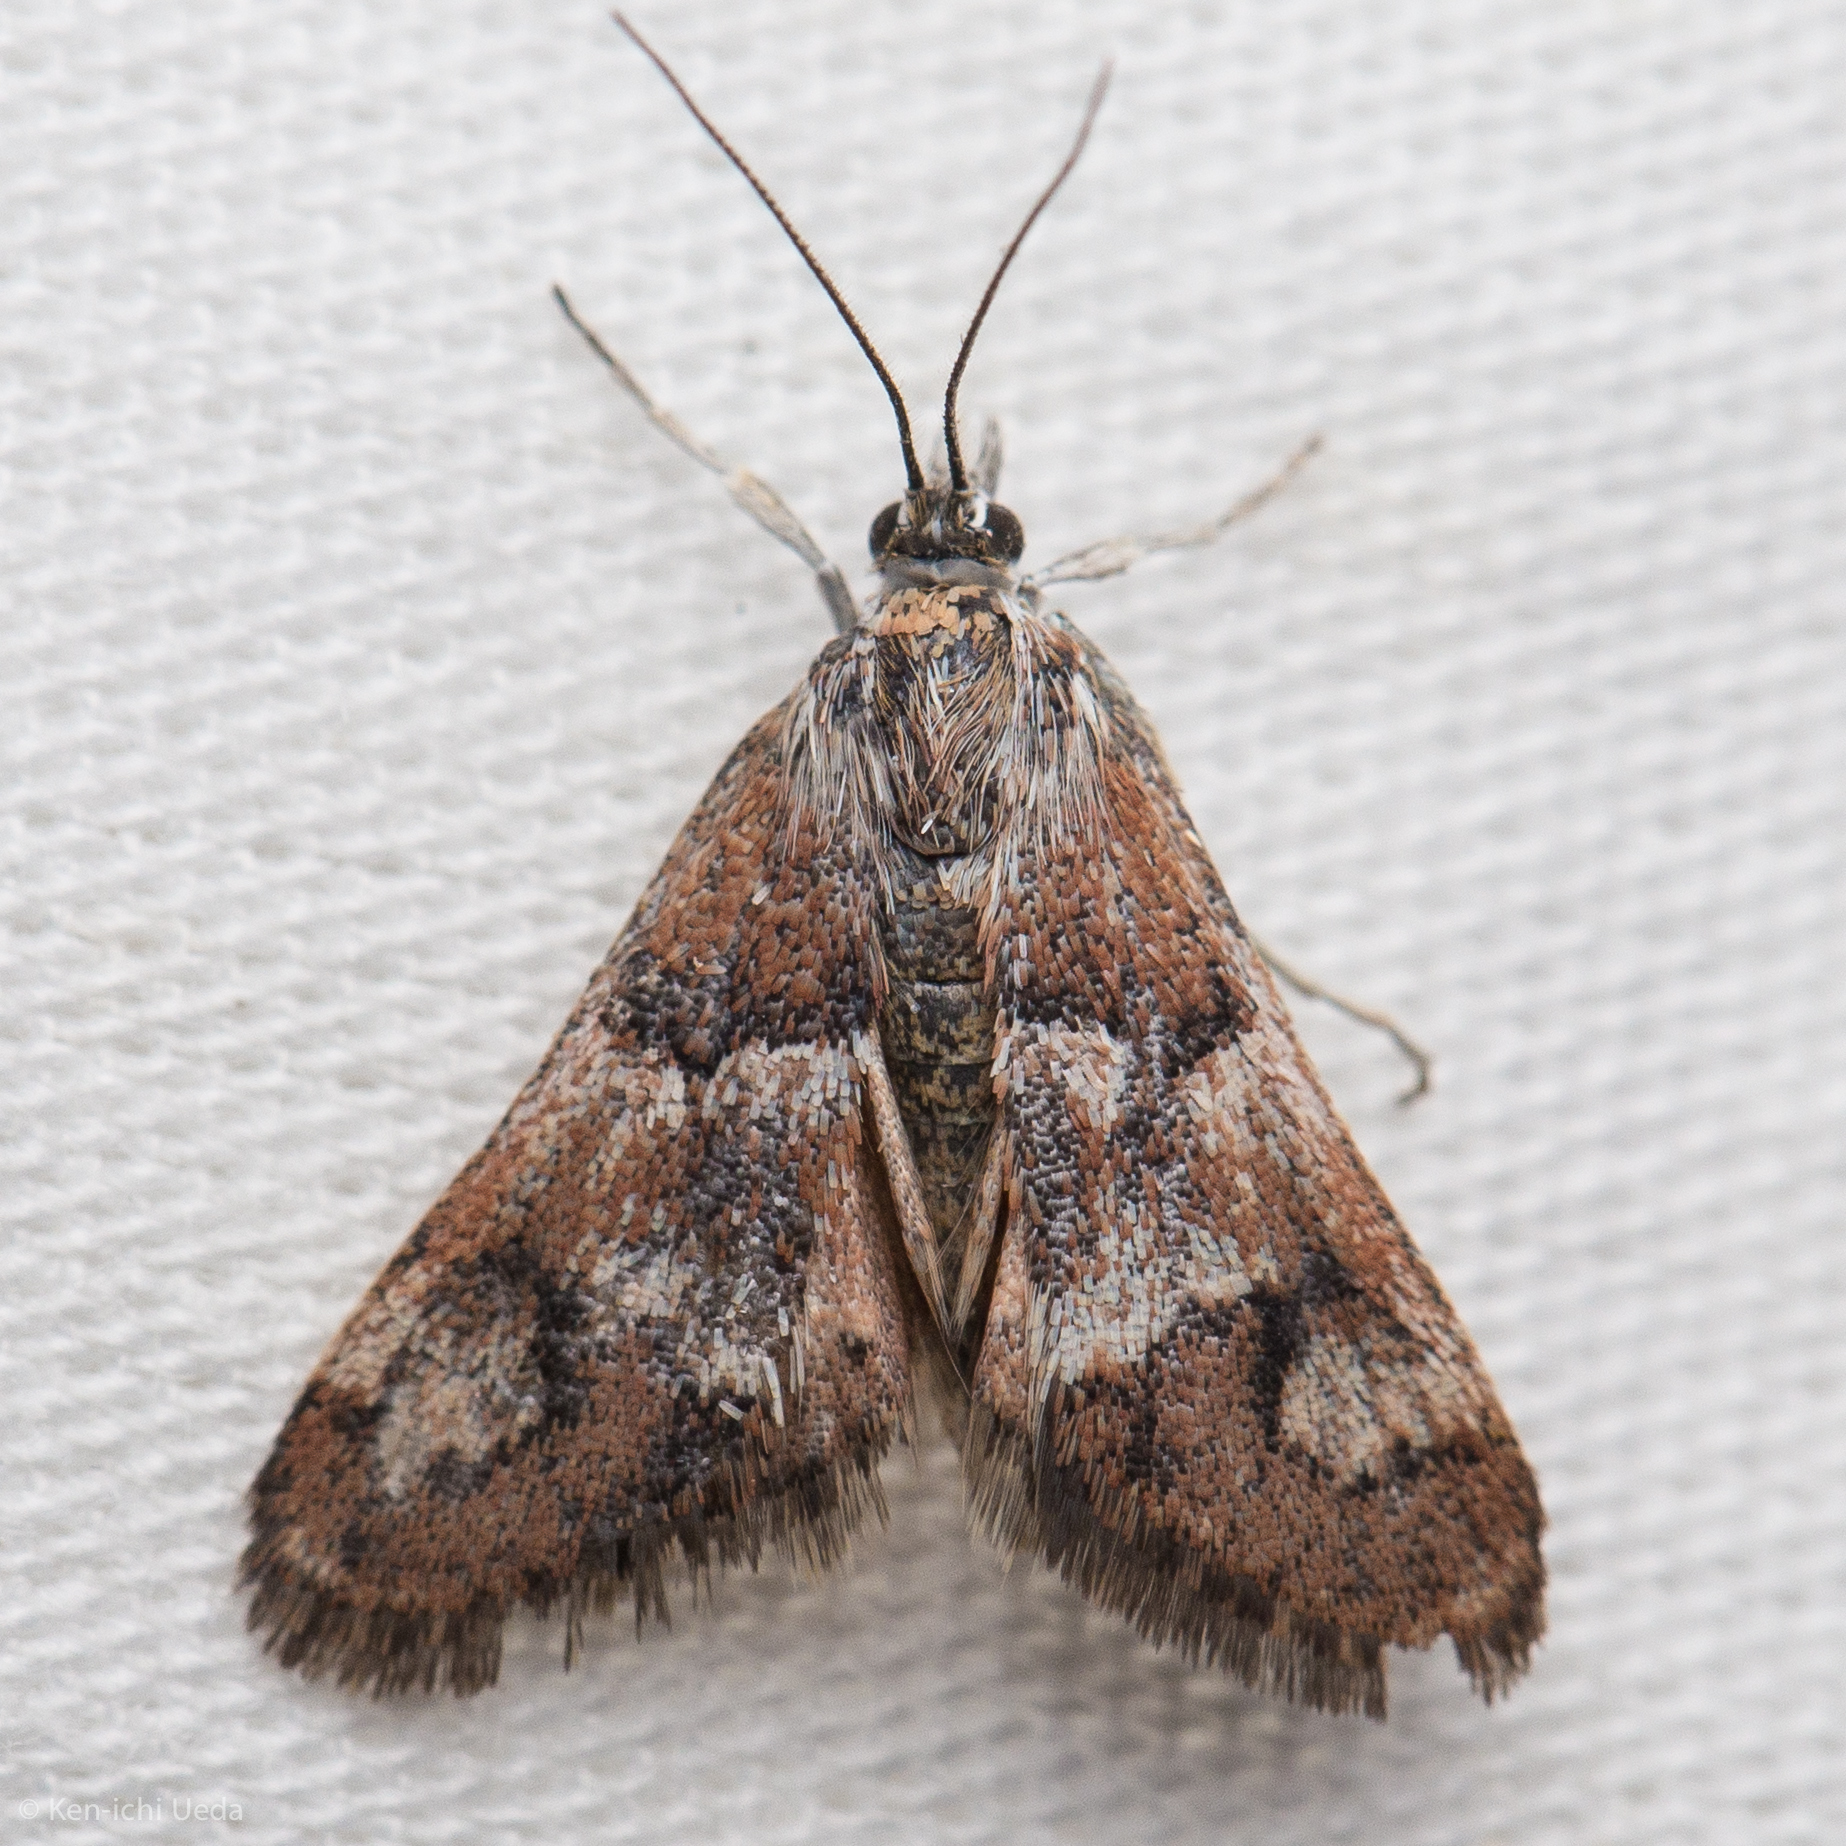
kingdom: Animalia
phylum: Arthropoda
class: Insecta
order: Lepidoptera
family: Crambidae
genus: Noctueliopsis
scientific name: Noctueliopsis brunnealis
